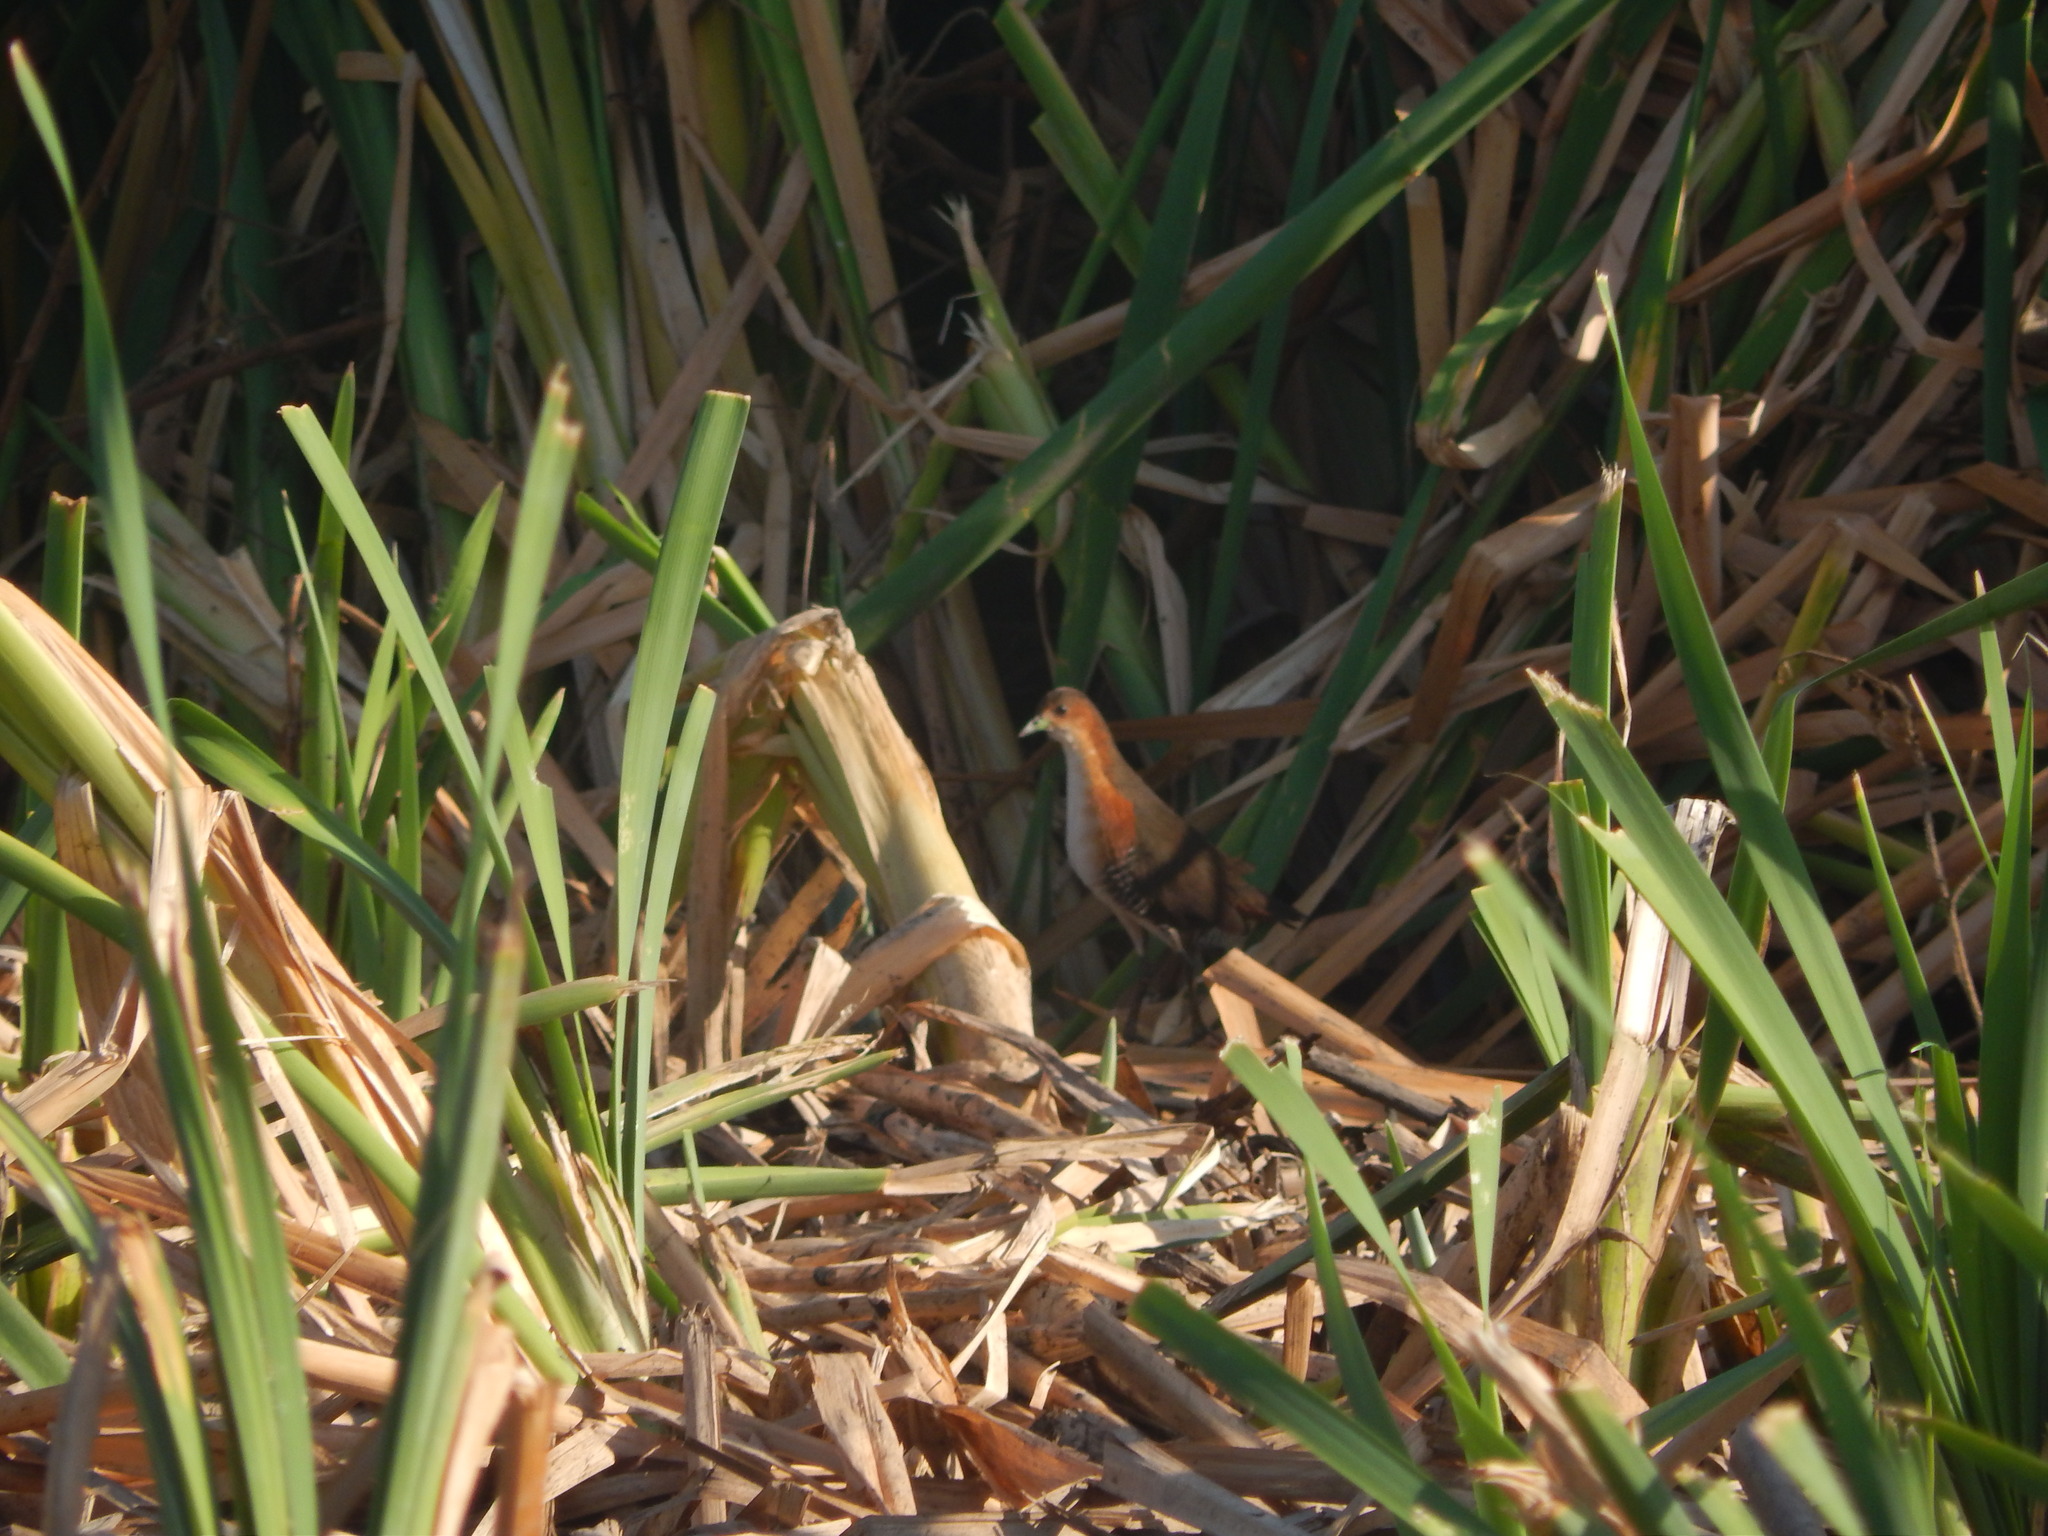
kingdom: Animalia
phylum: Chordata
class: Aves
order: Gruiformes
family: Rallidae
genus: Laterallus
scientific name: Laterallus melanophaius
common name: Rufous-sided crake
